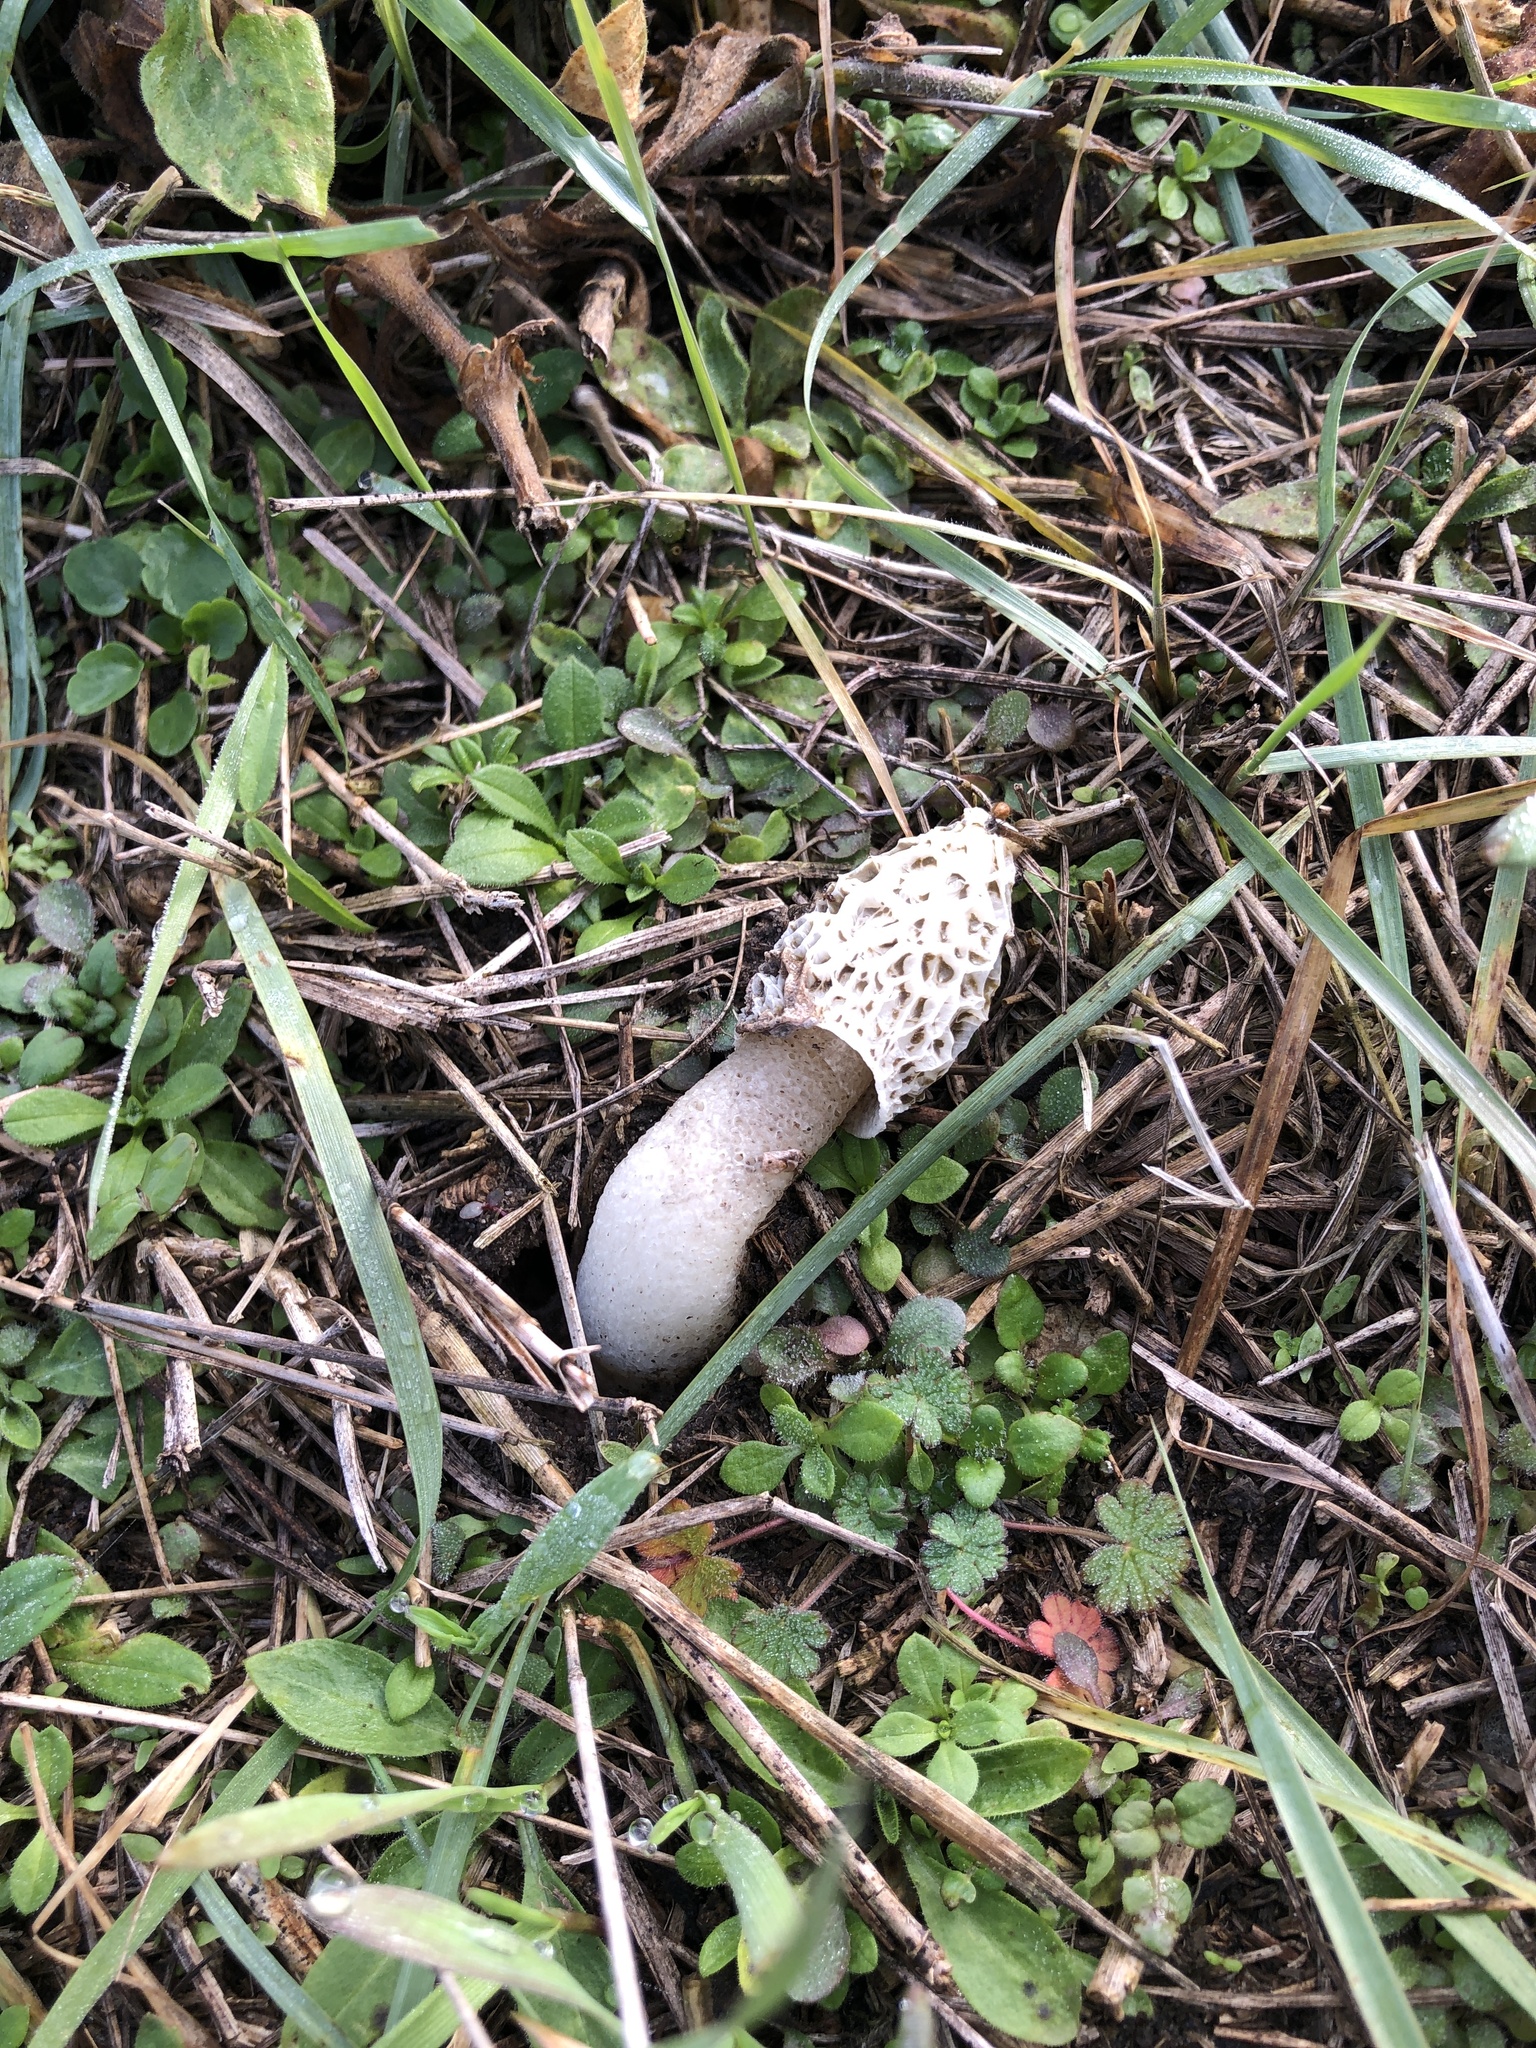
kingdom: Fungi
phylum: Basidiomycota
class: Agaricomycetes
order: Phallales
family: Phallaceae
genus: Phallus
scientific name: Phallus impudicus
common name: Common stinkhorn
